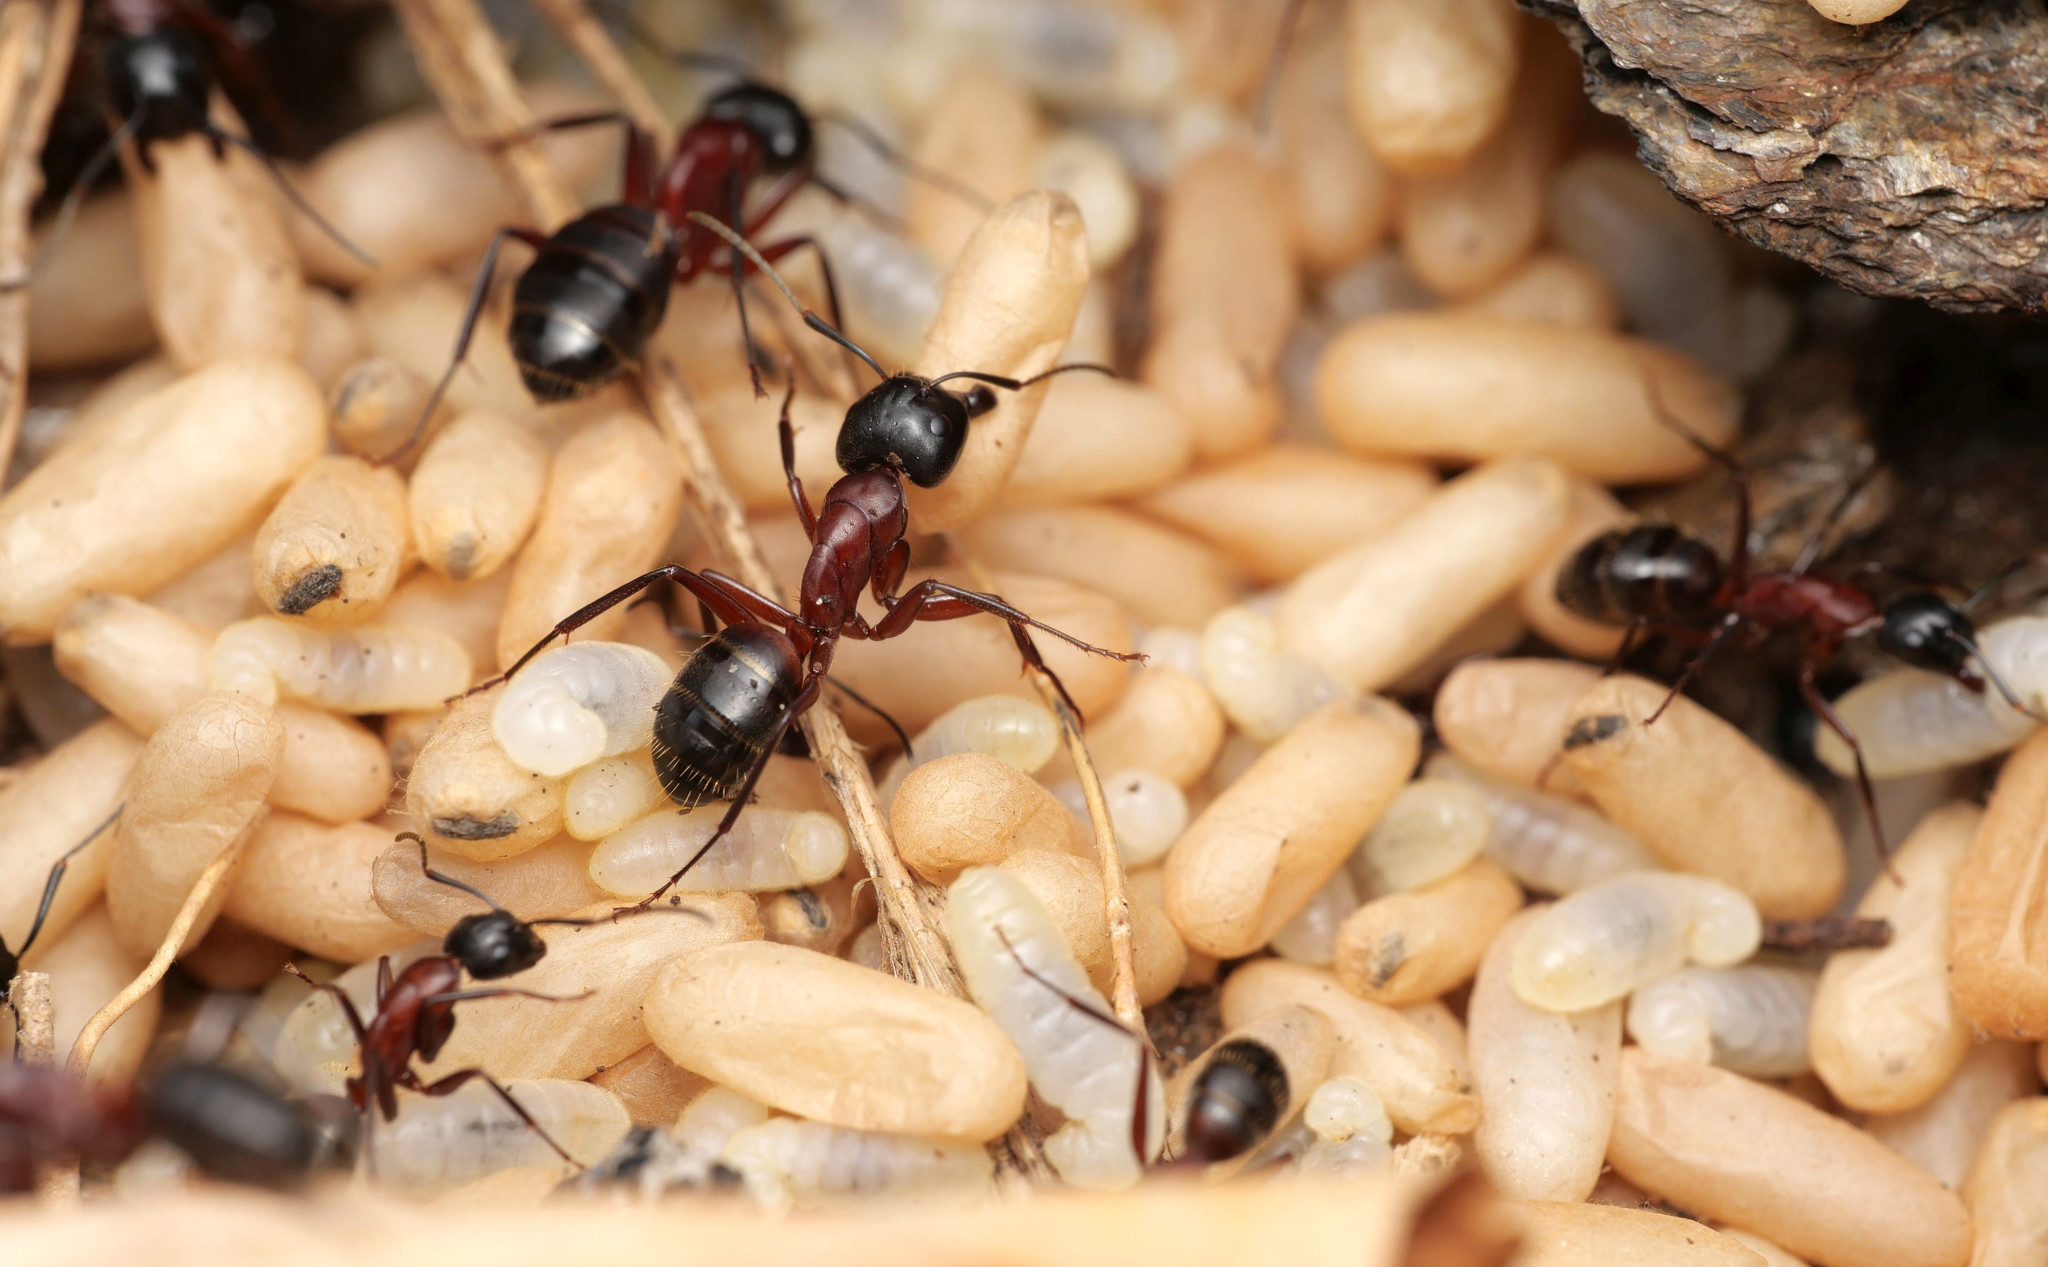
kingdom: Animalia
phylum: Arthropoda
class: Insecta
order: Hymenoptera
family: Formicidae
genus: Camponotus
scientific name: Camponotus ligniperdus
